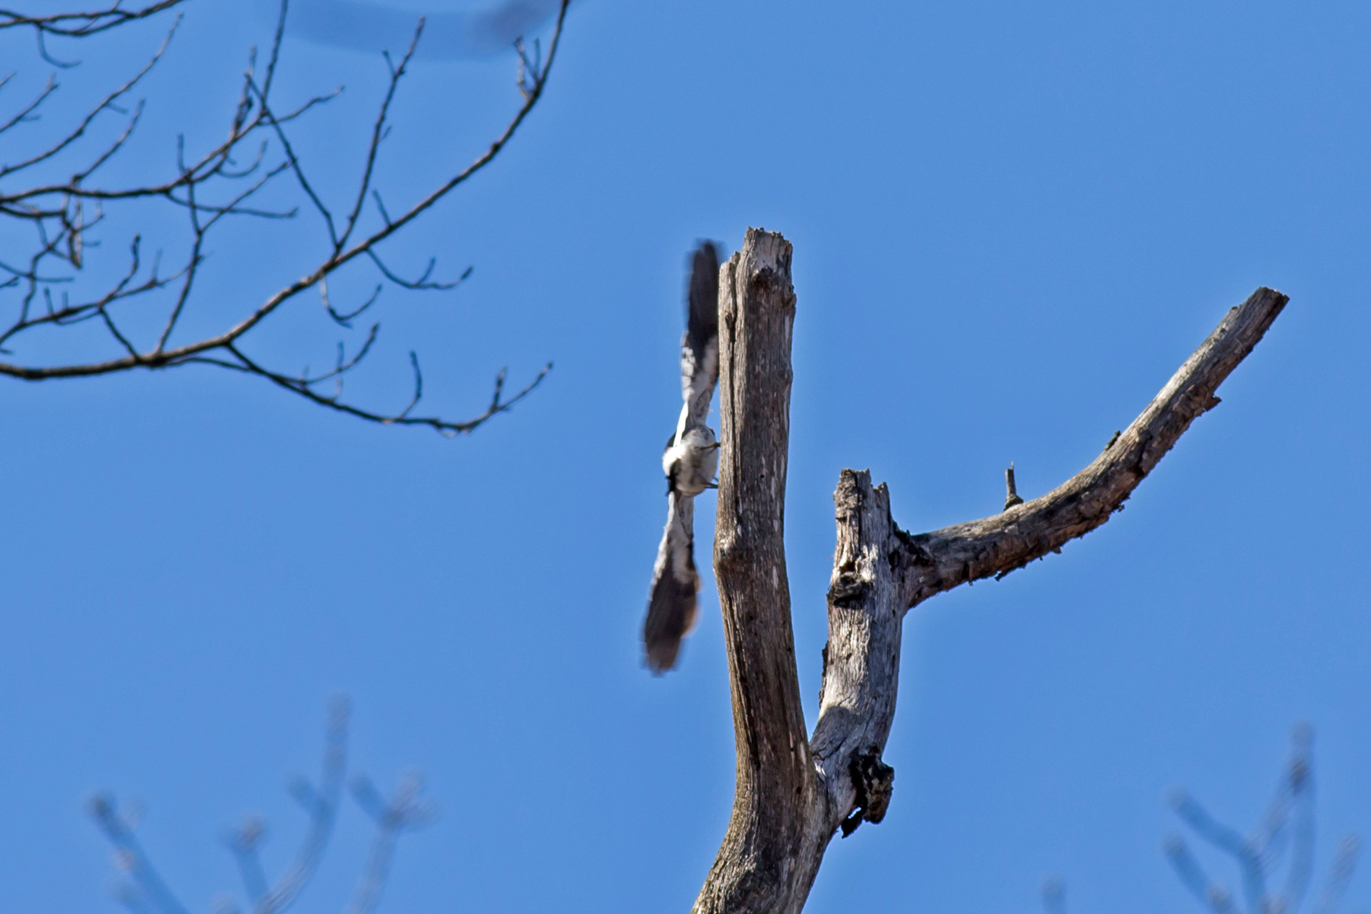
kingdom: Animalia
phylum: Chordata
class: Aves
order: Piciformes
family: Picidae
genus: Melanerpes
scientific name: Melanerpes erythrocephalus
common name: Red-headed woodpecker
